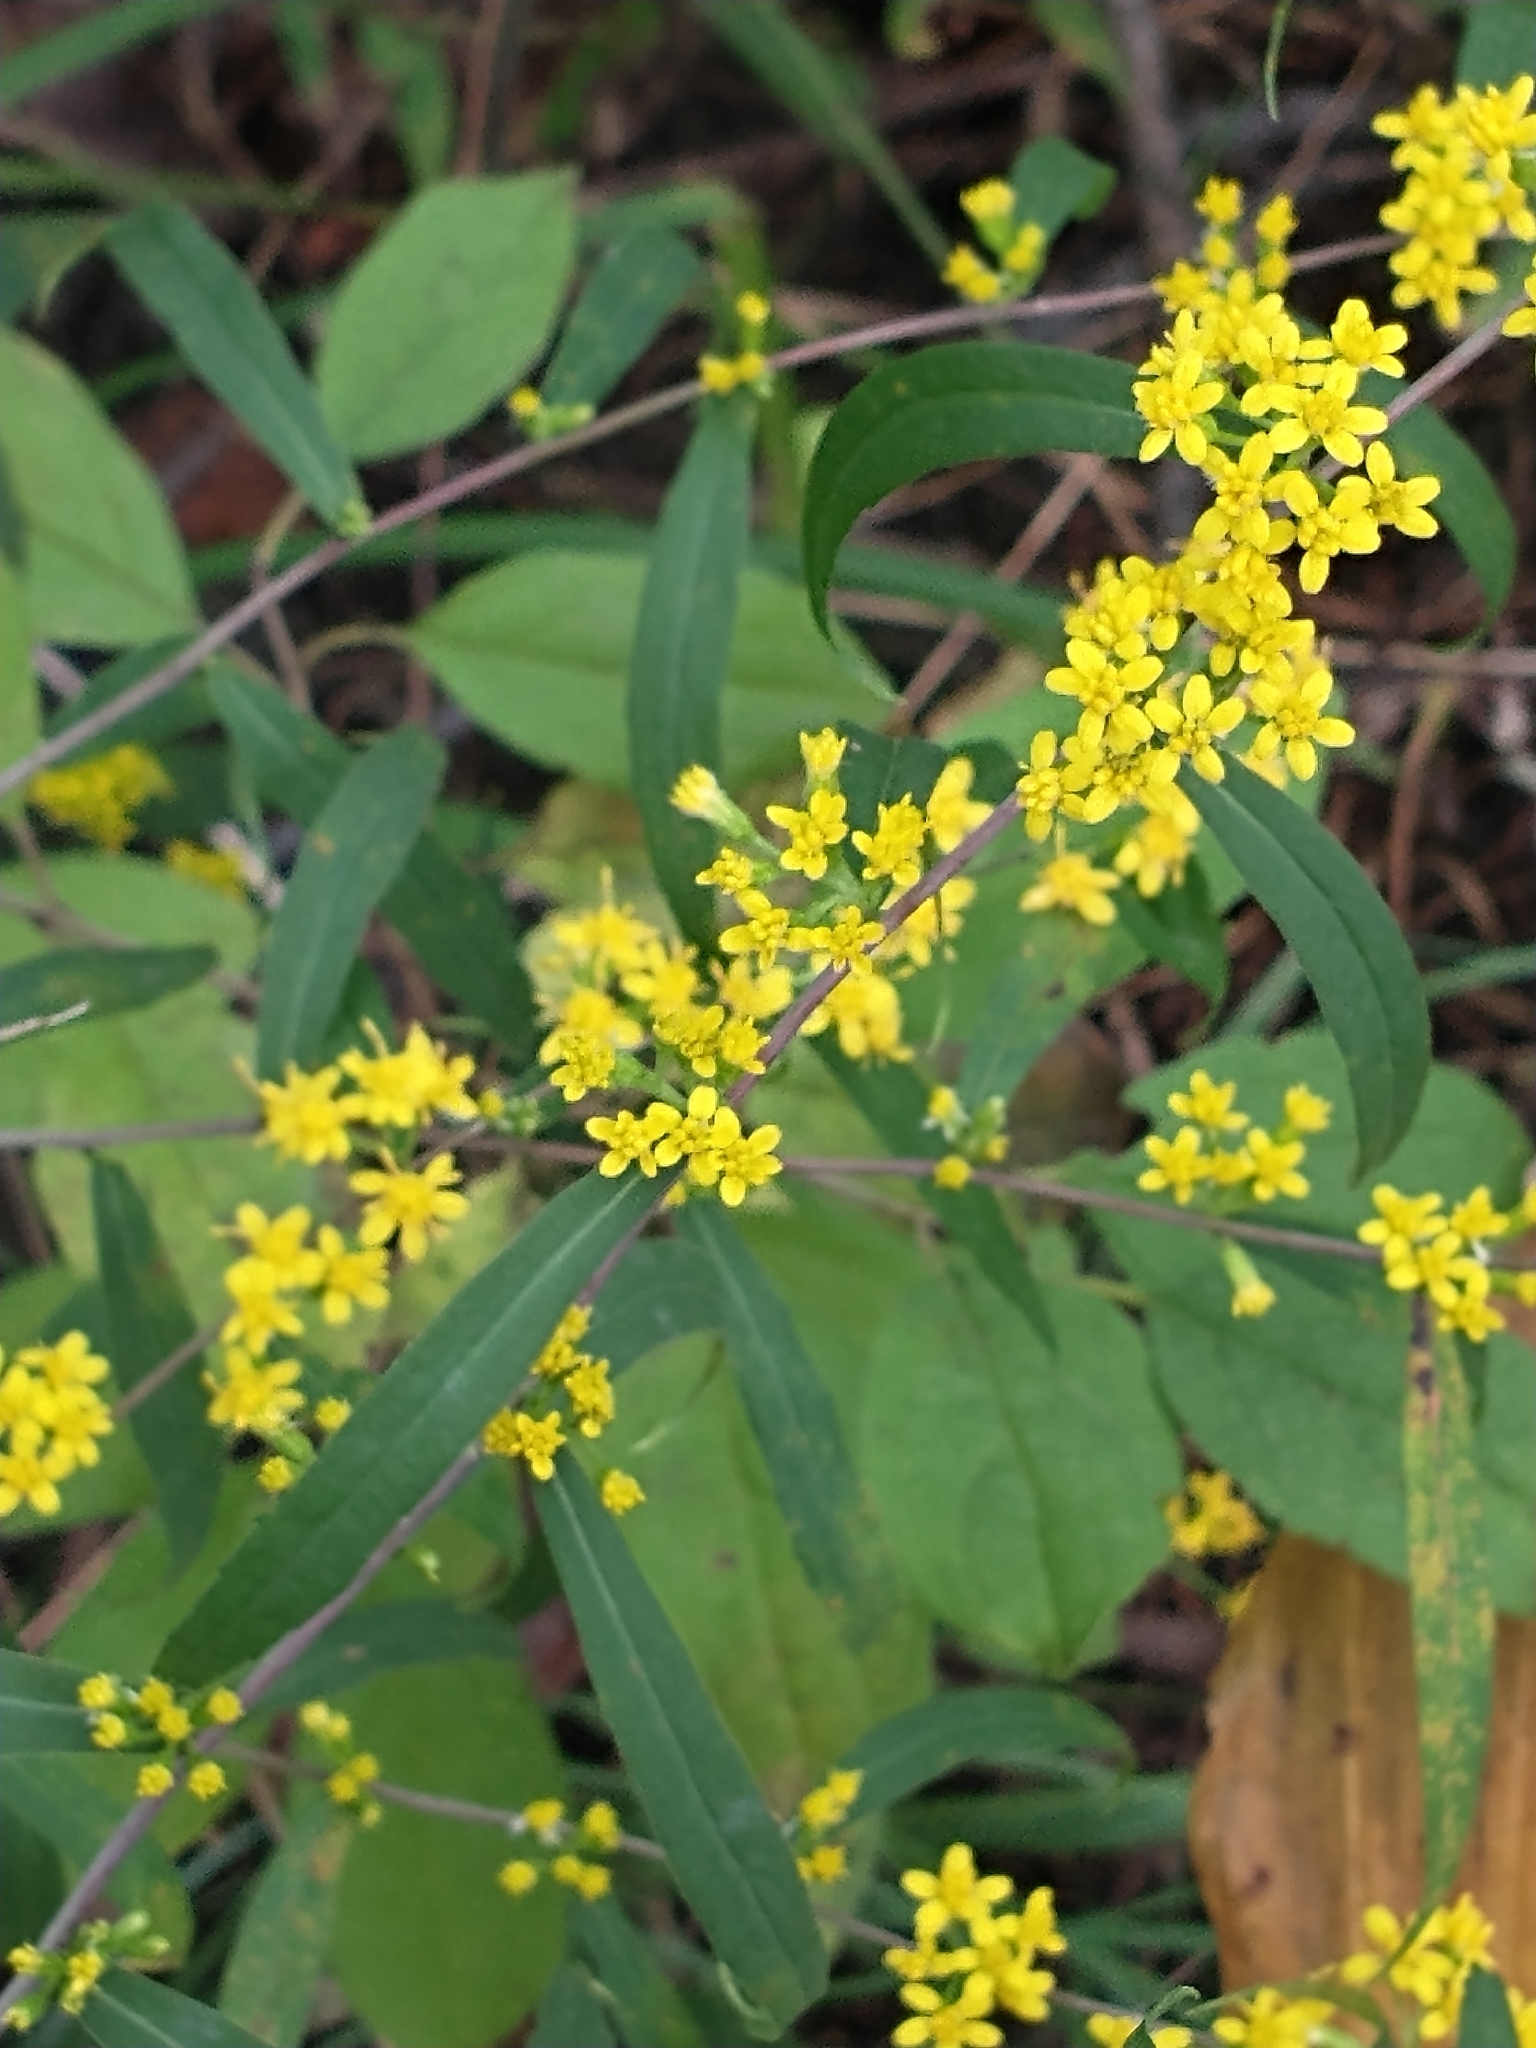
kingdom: Plantae
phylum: Tracheophyta
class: Magnoliopsida
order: Asterales
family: Asteraceae
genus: Solidago
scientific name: Solidago caesia
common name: Woodland goldenrod
